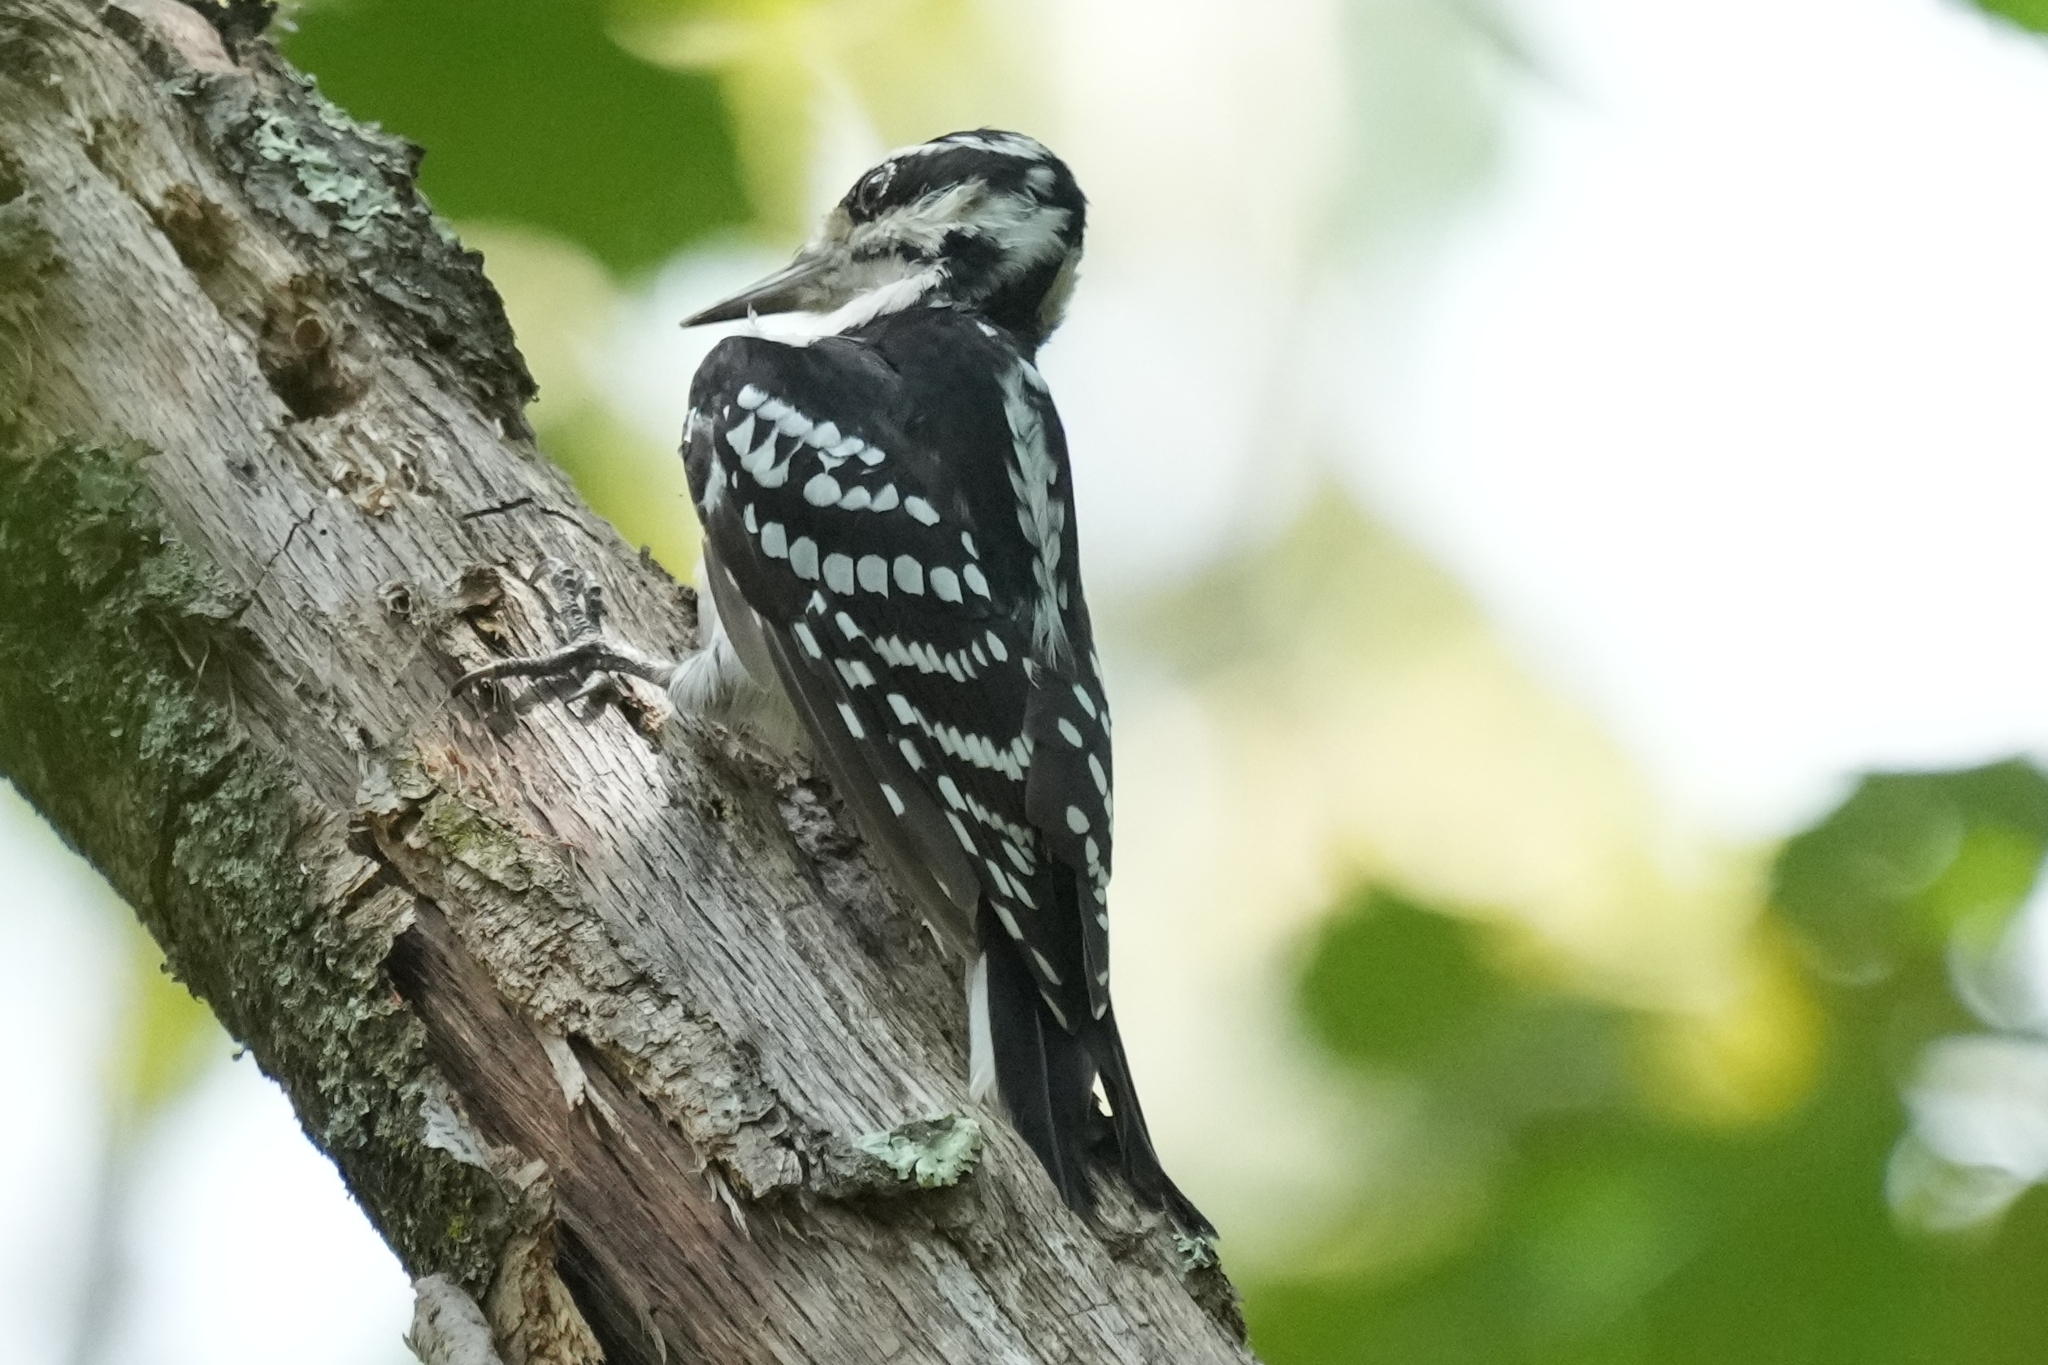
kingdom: Animalia
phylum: Chordata
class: Aves
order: Piciformes
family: Picidae
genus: Leuconotopicus
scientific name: Leuconotopicus villosus
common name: Hairy woodpecker
